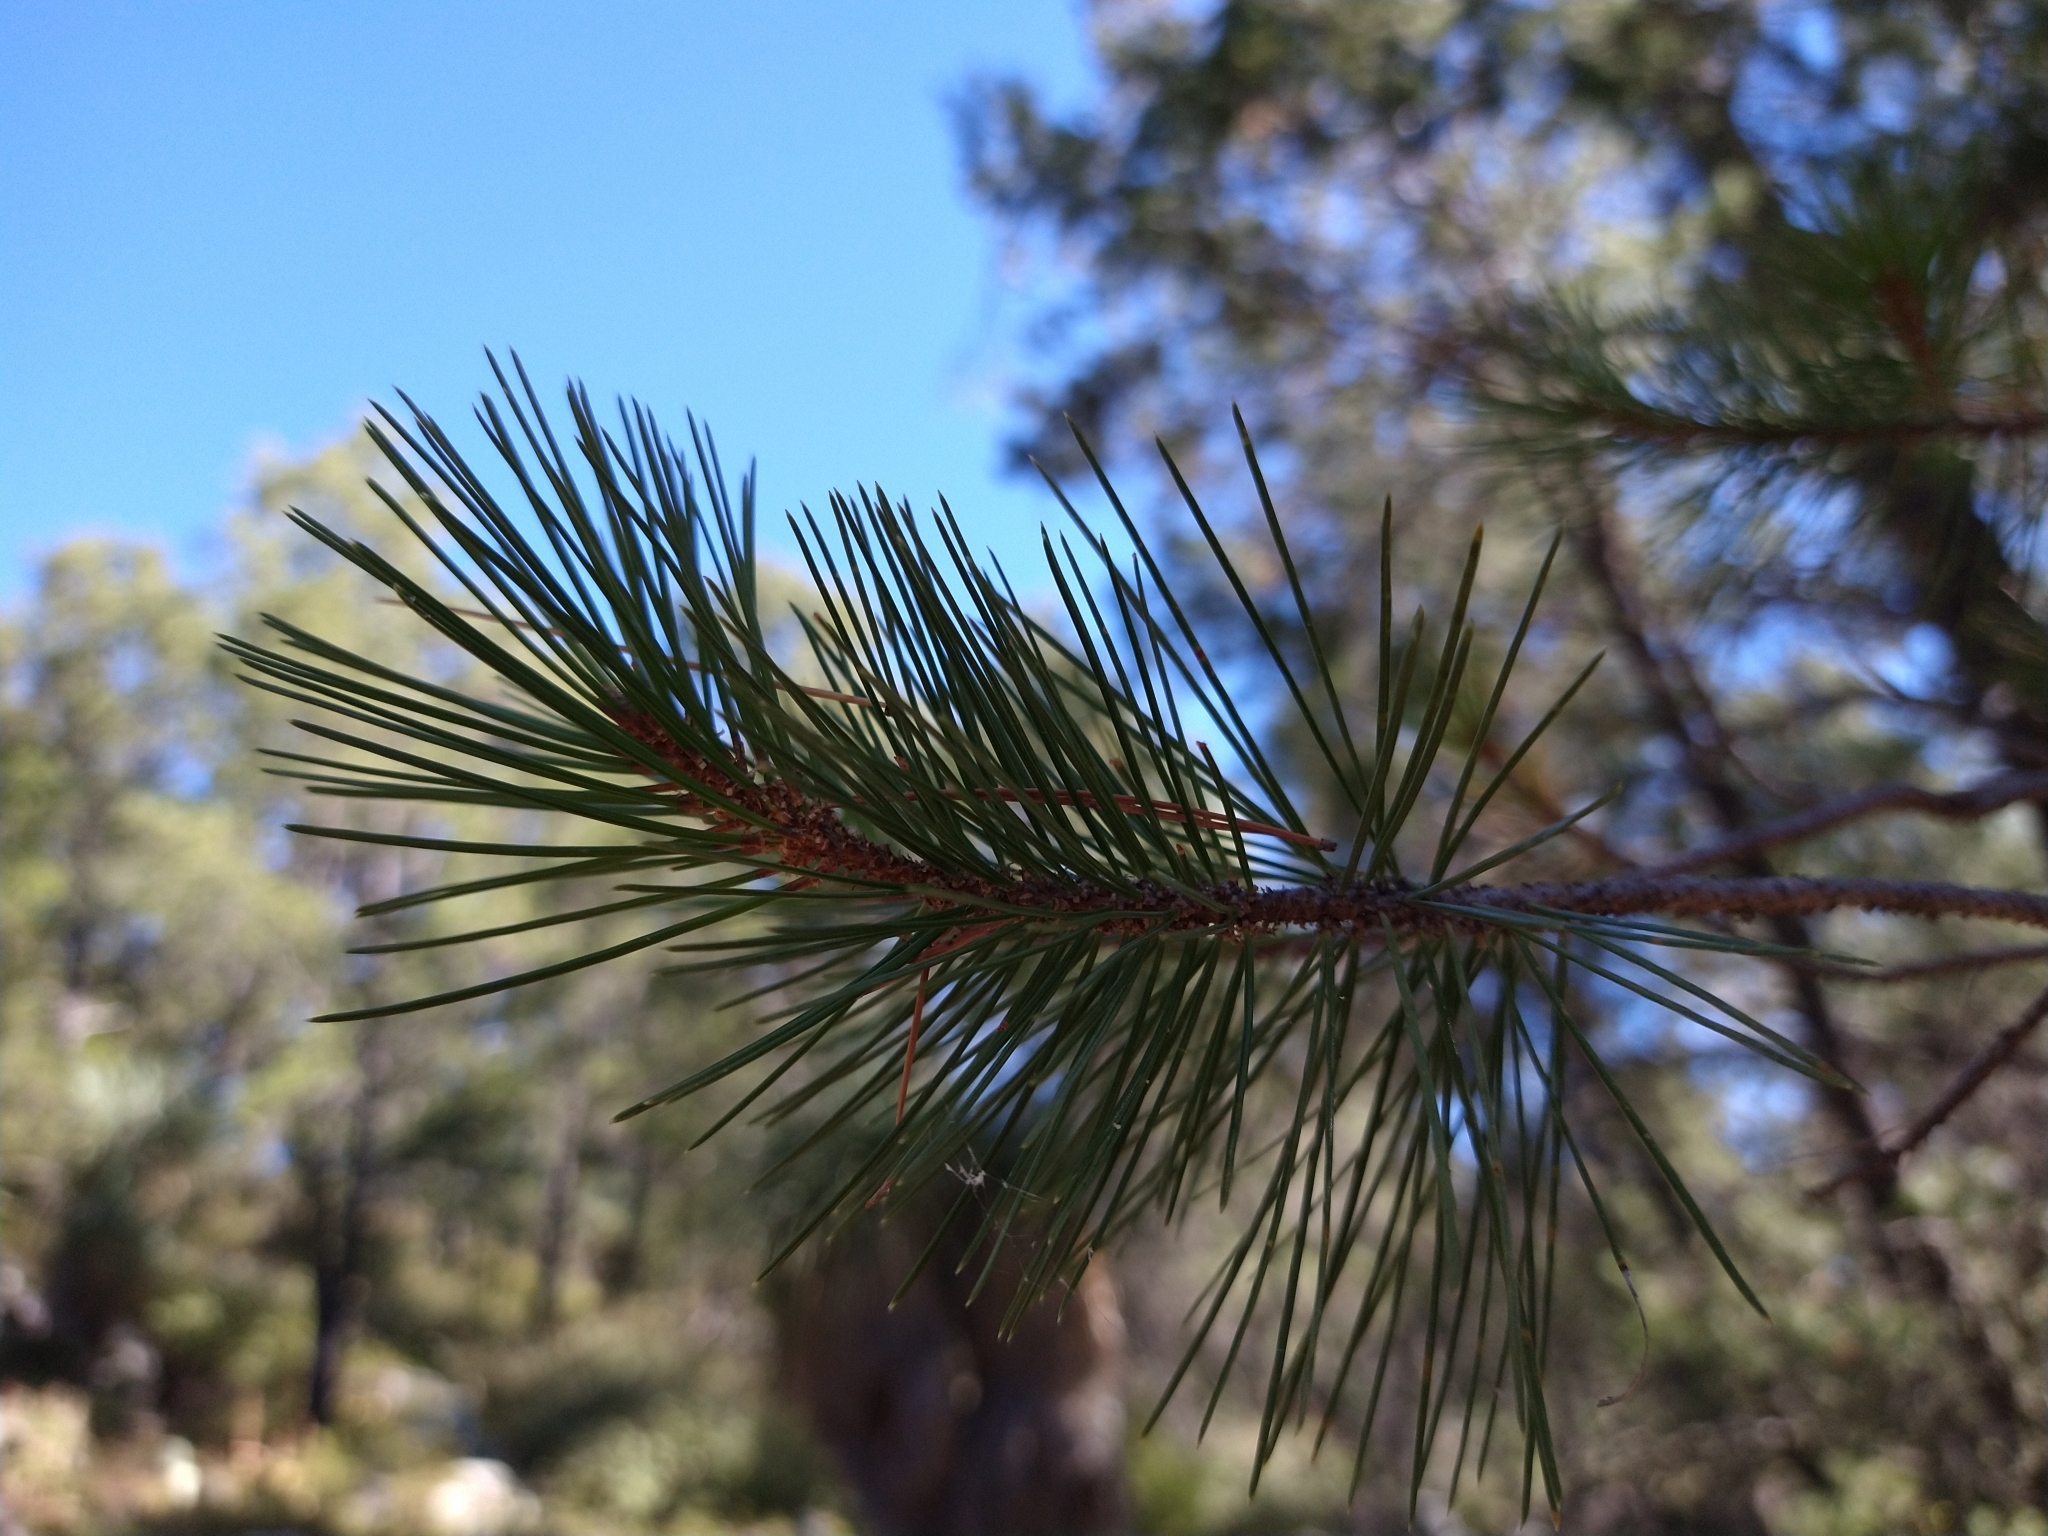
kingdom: Plantae
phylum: Tracheophyta
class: Pinopsida
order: Pinales
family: Pinaceae
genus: Pinus
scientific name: Pinus cembroides
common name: Mexican nut pine
